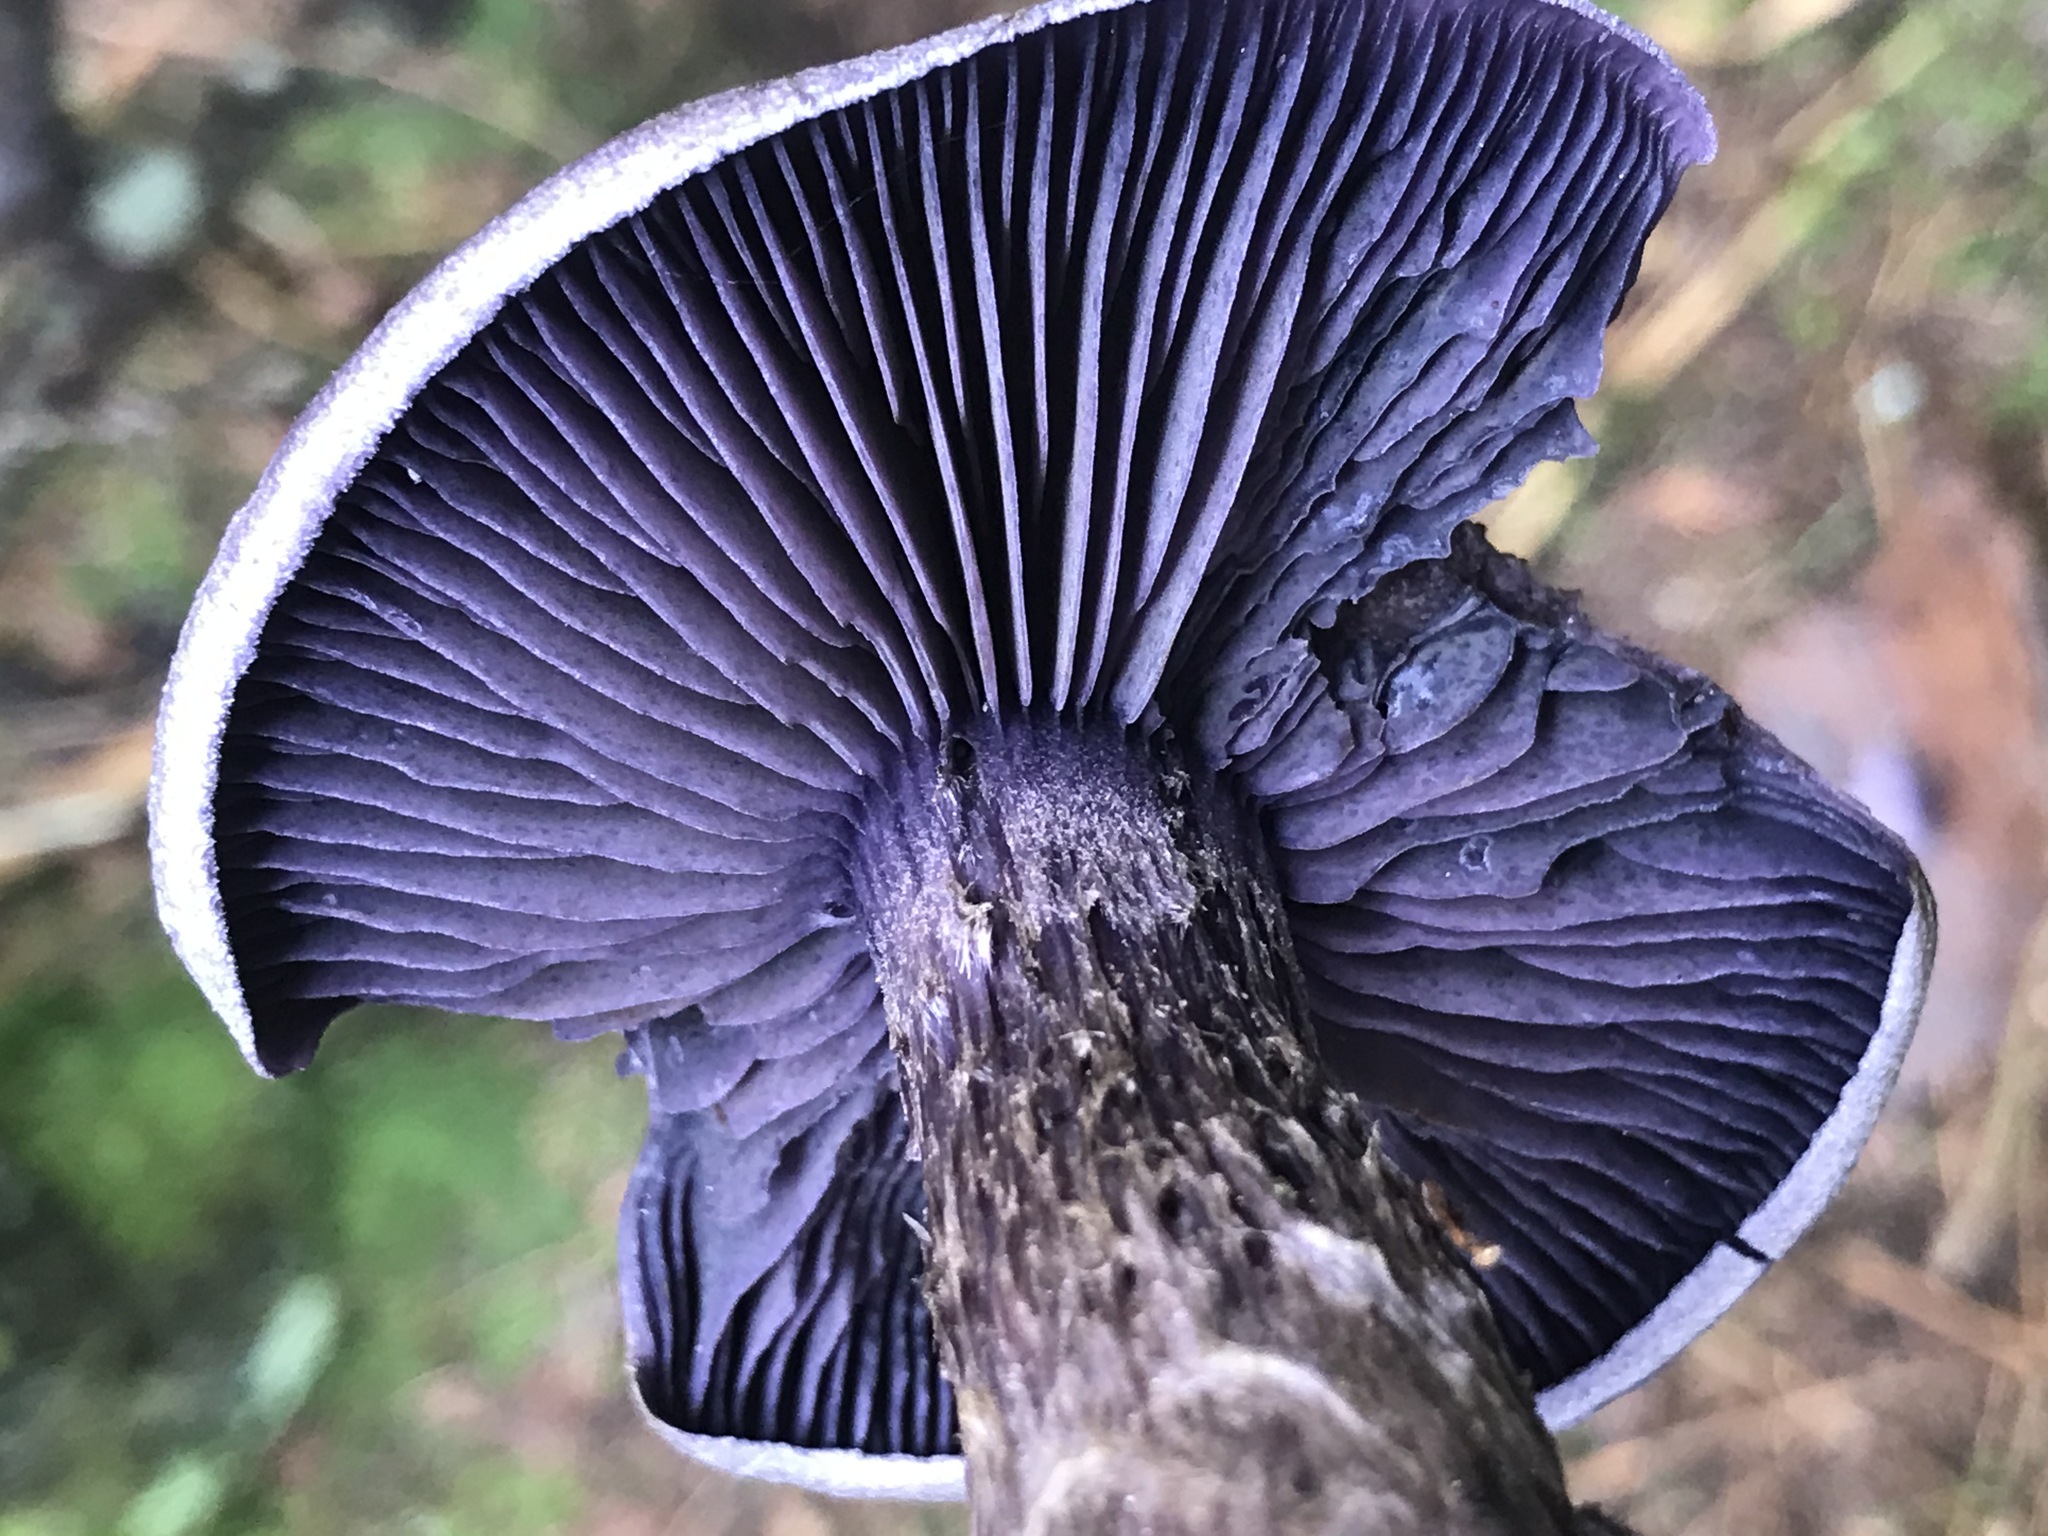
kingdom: Fungi
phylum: Basidiomycota
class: Agaricomycetes
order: Agaricales
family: Cortinariaceae
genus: Cortinarius
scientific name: Cortinarius violaceus
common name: Violet webcap
